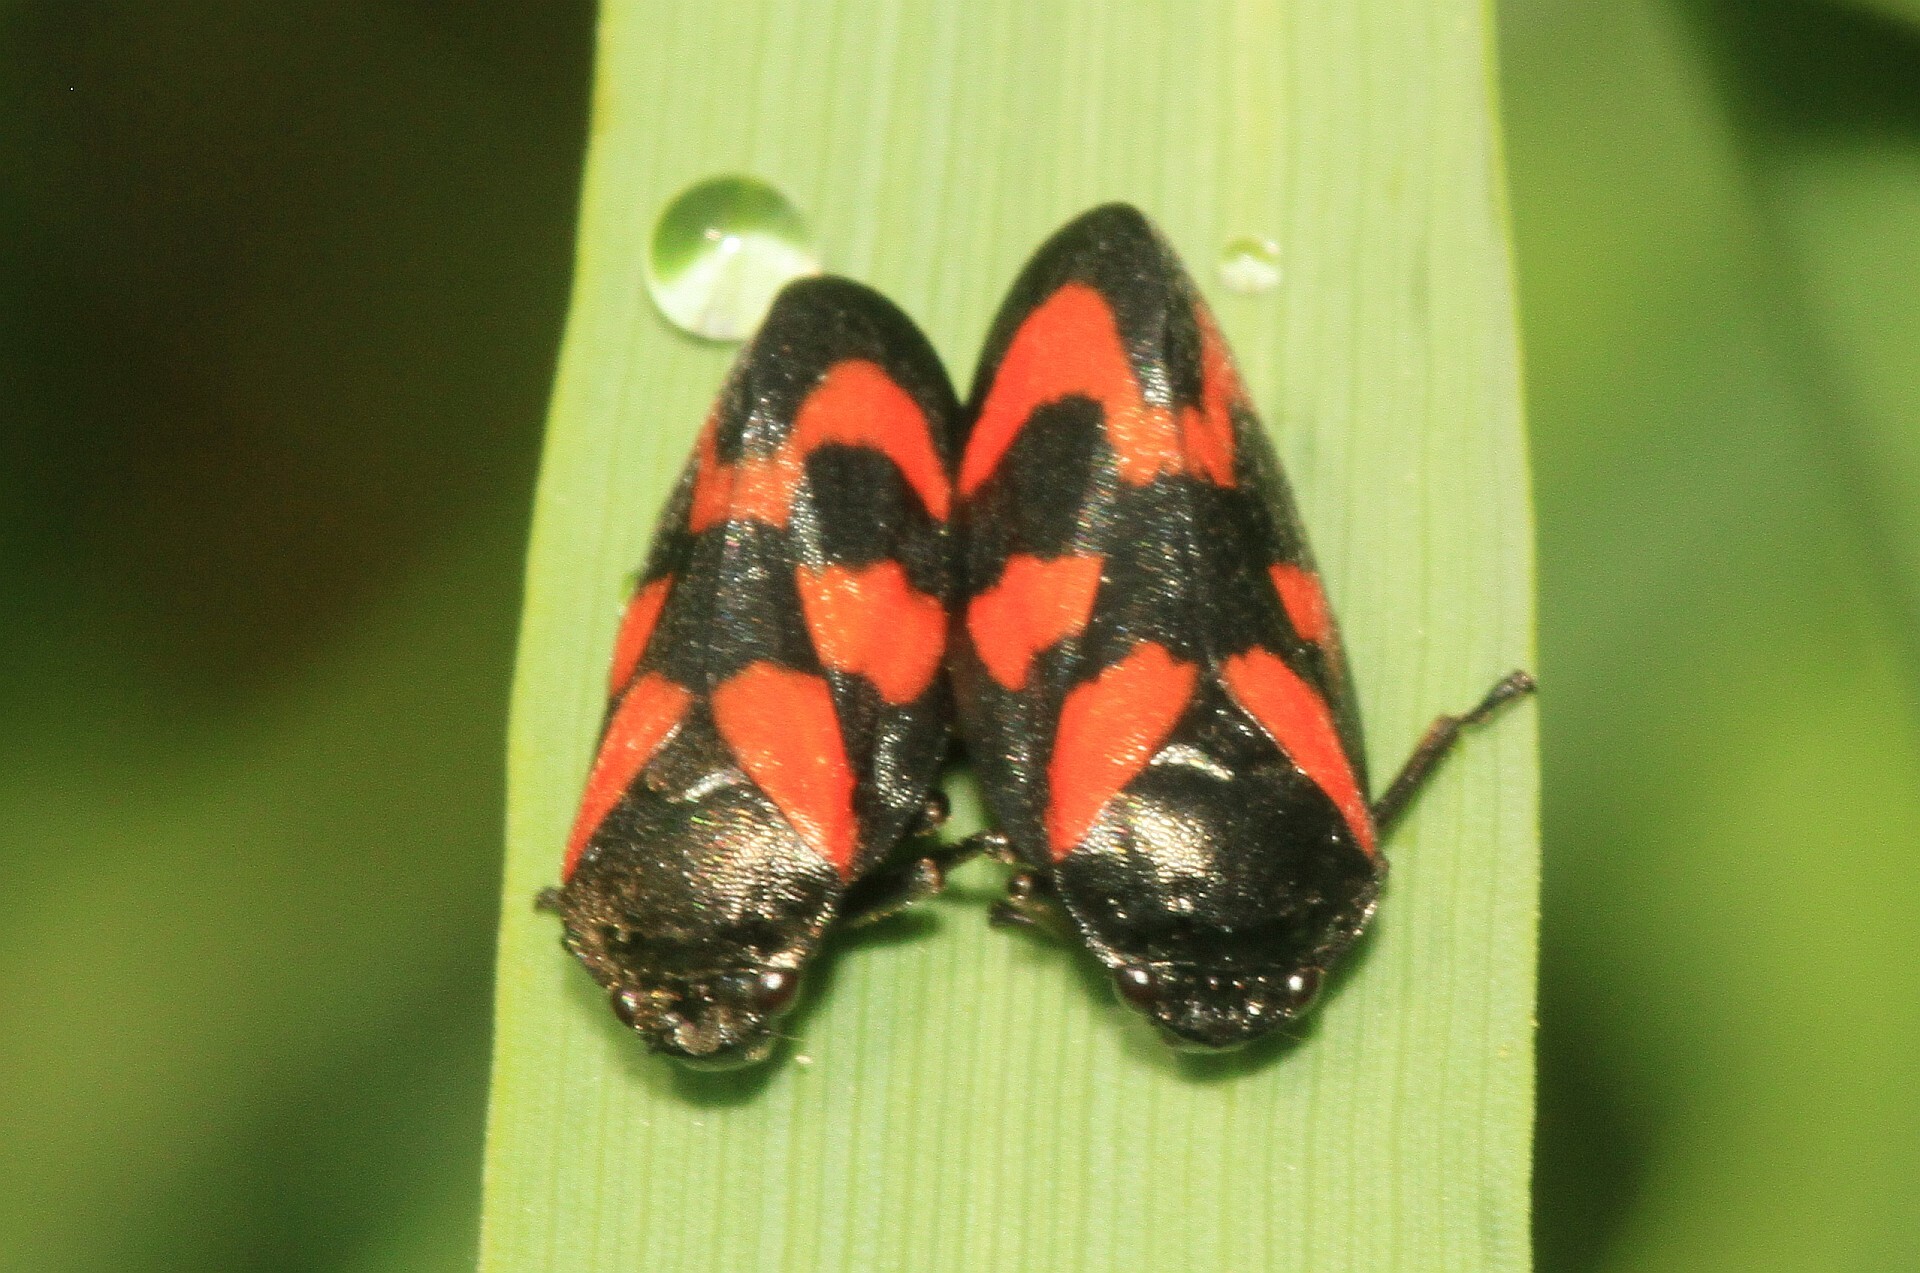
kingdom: Animalia
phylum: Arthropoda
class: Insecta
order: Hemiptera
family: Cercopidae
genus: Cercopis
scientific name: Cercopis vulnerata
